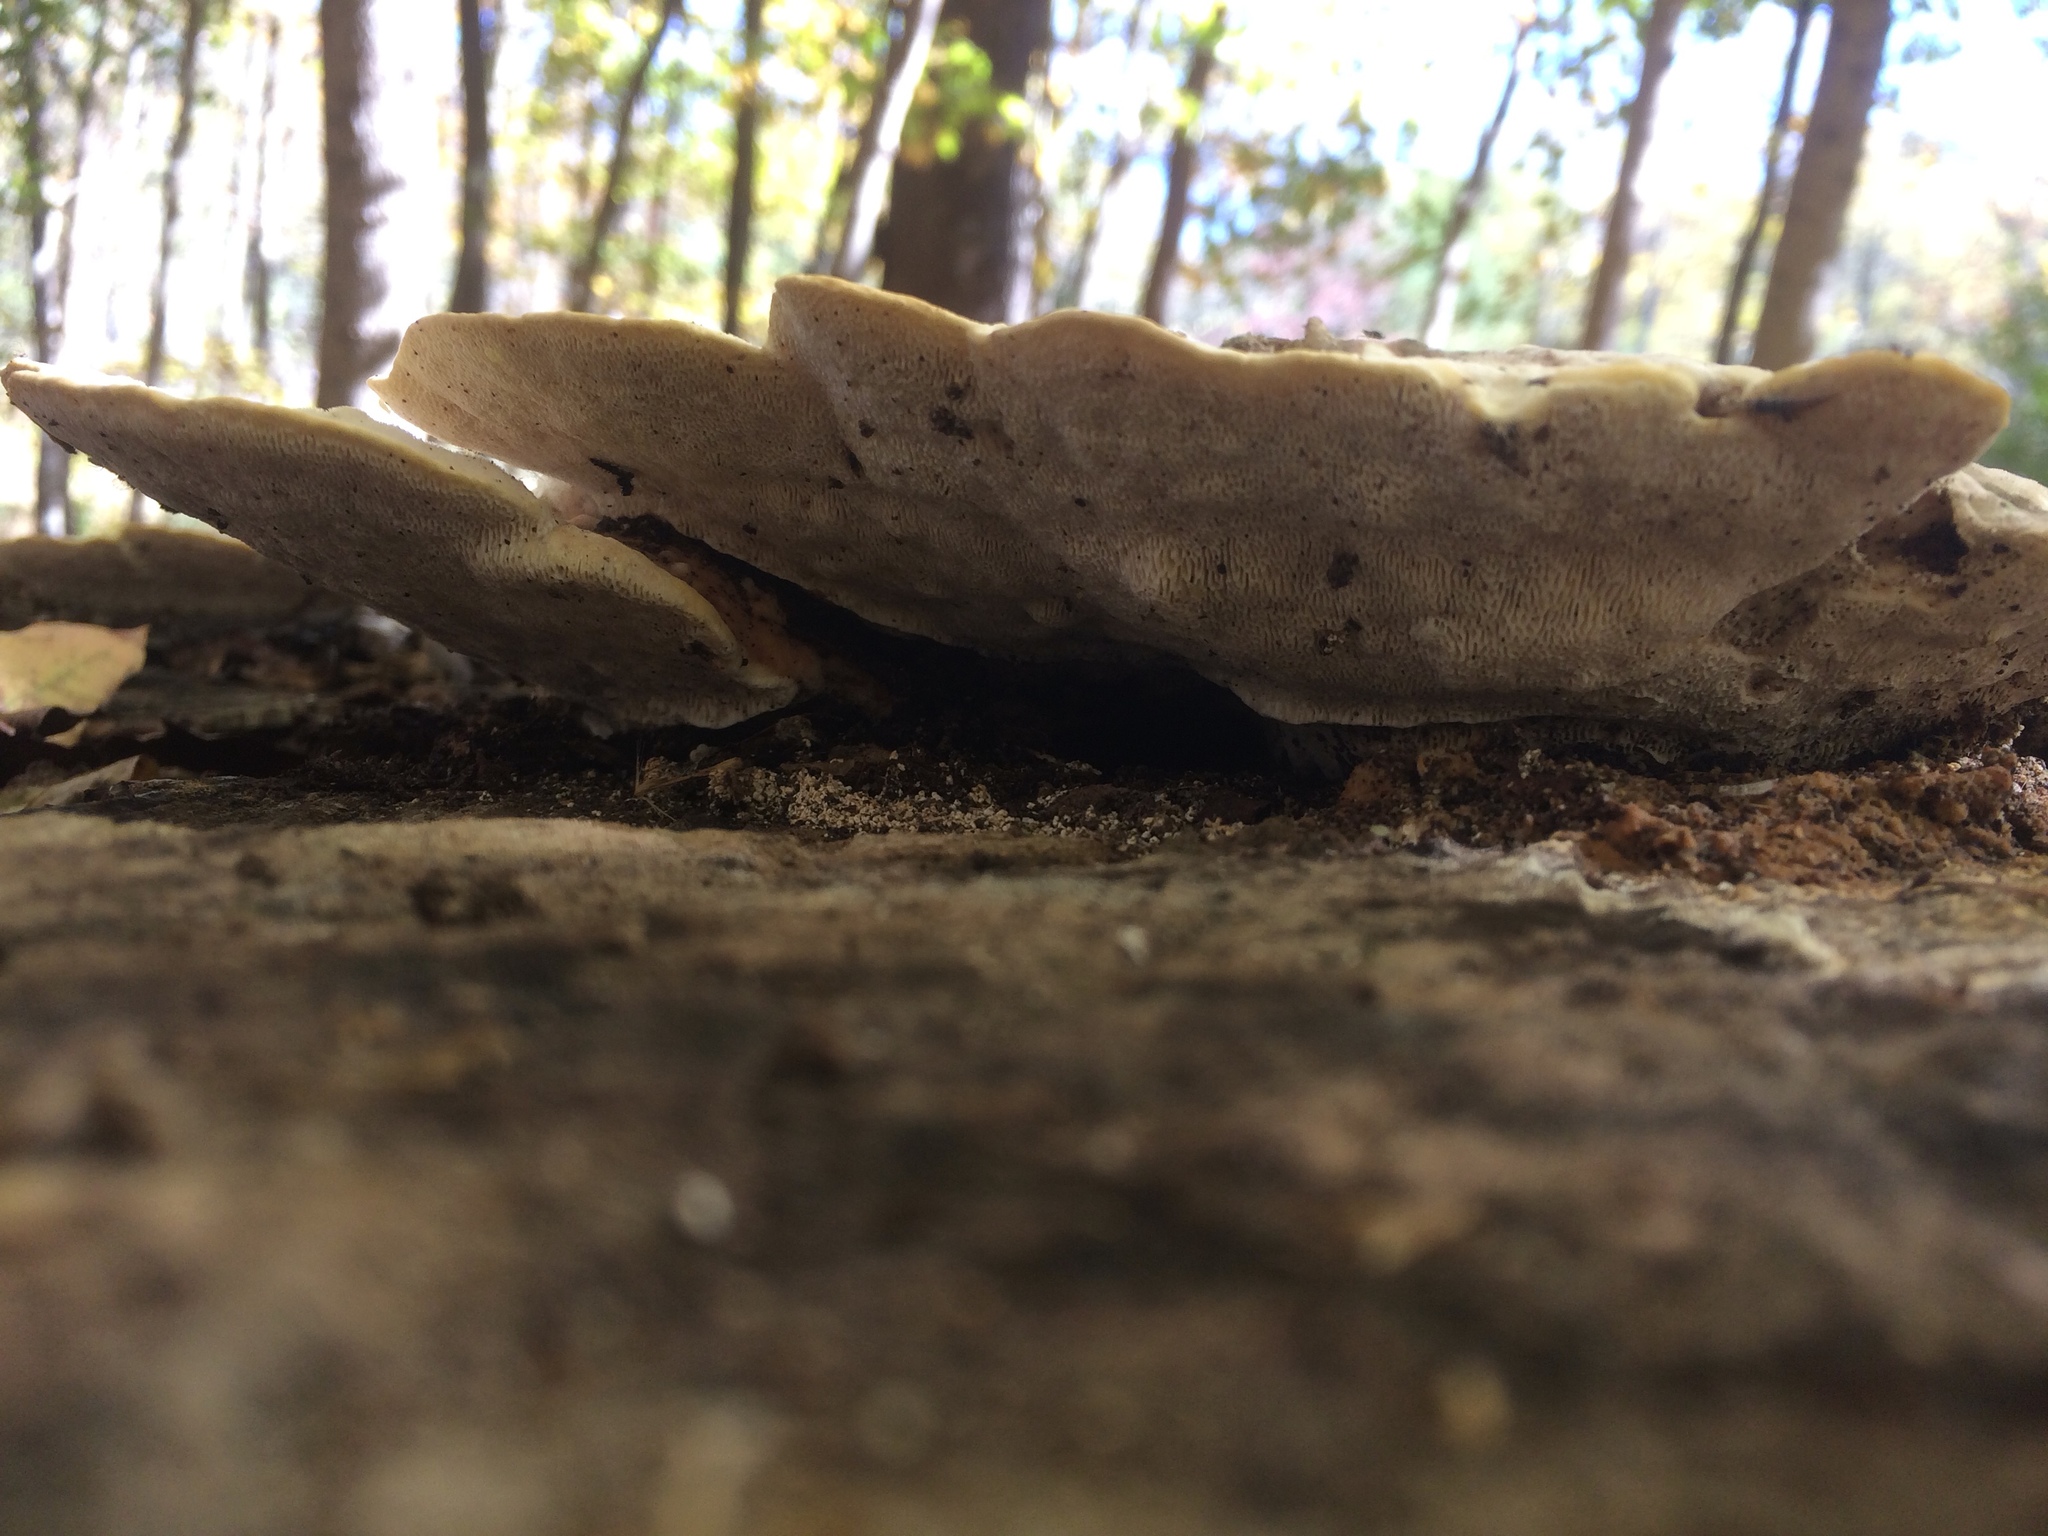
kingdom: Fungi
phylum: Basidiomycota
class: Agaricomycetes
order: Polyporales
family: Polyporaceae
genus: Trametes
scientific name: Trametes gibbosa
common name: Lumpy bracket
